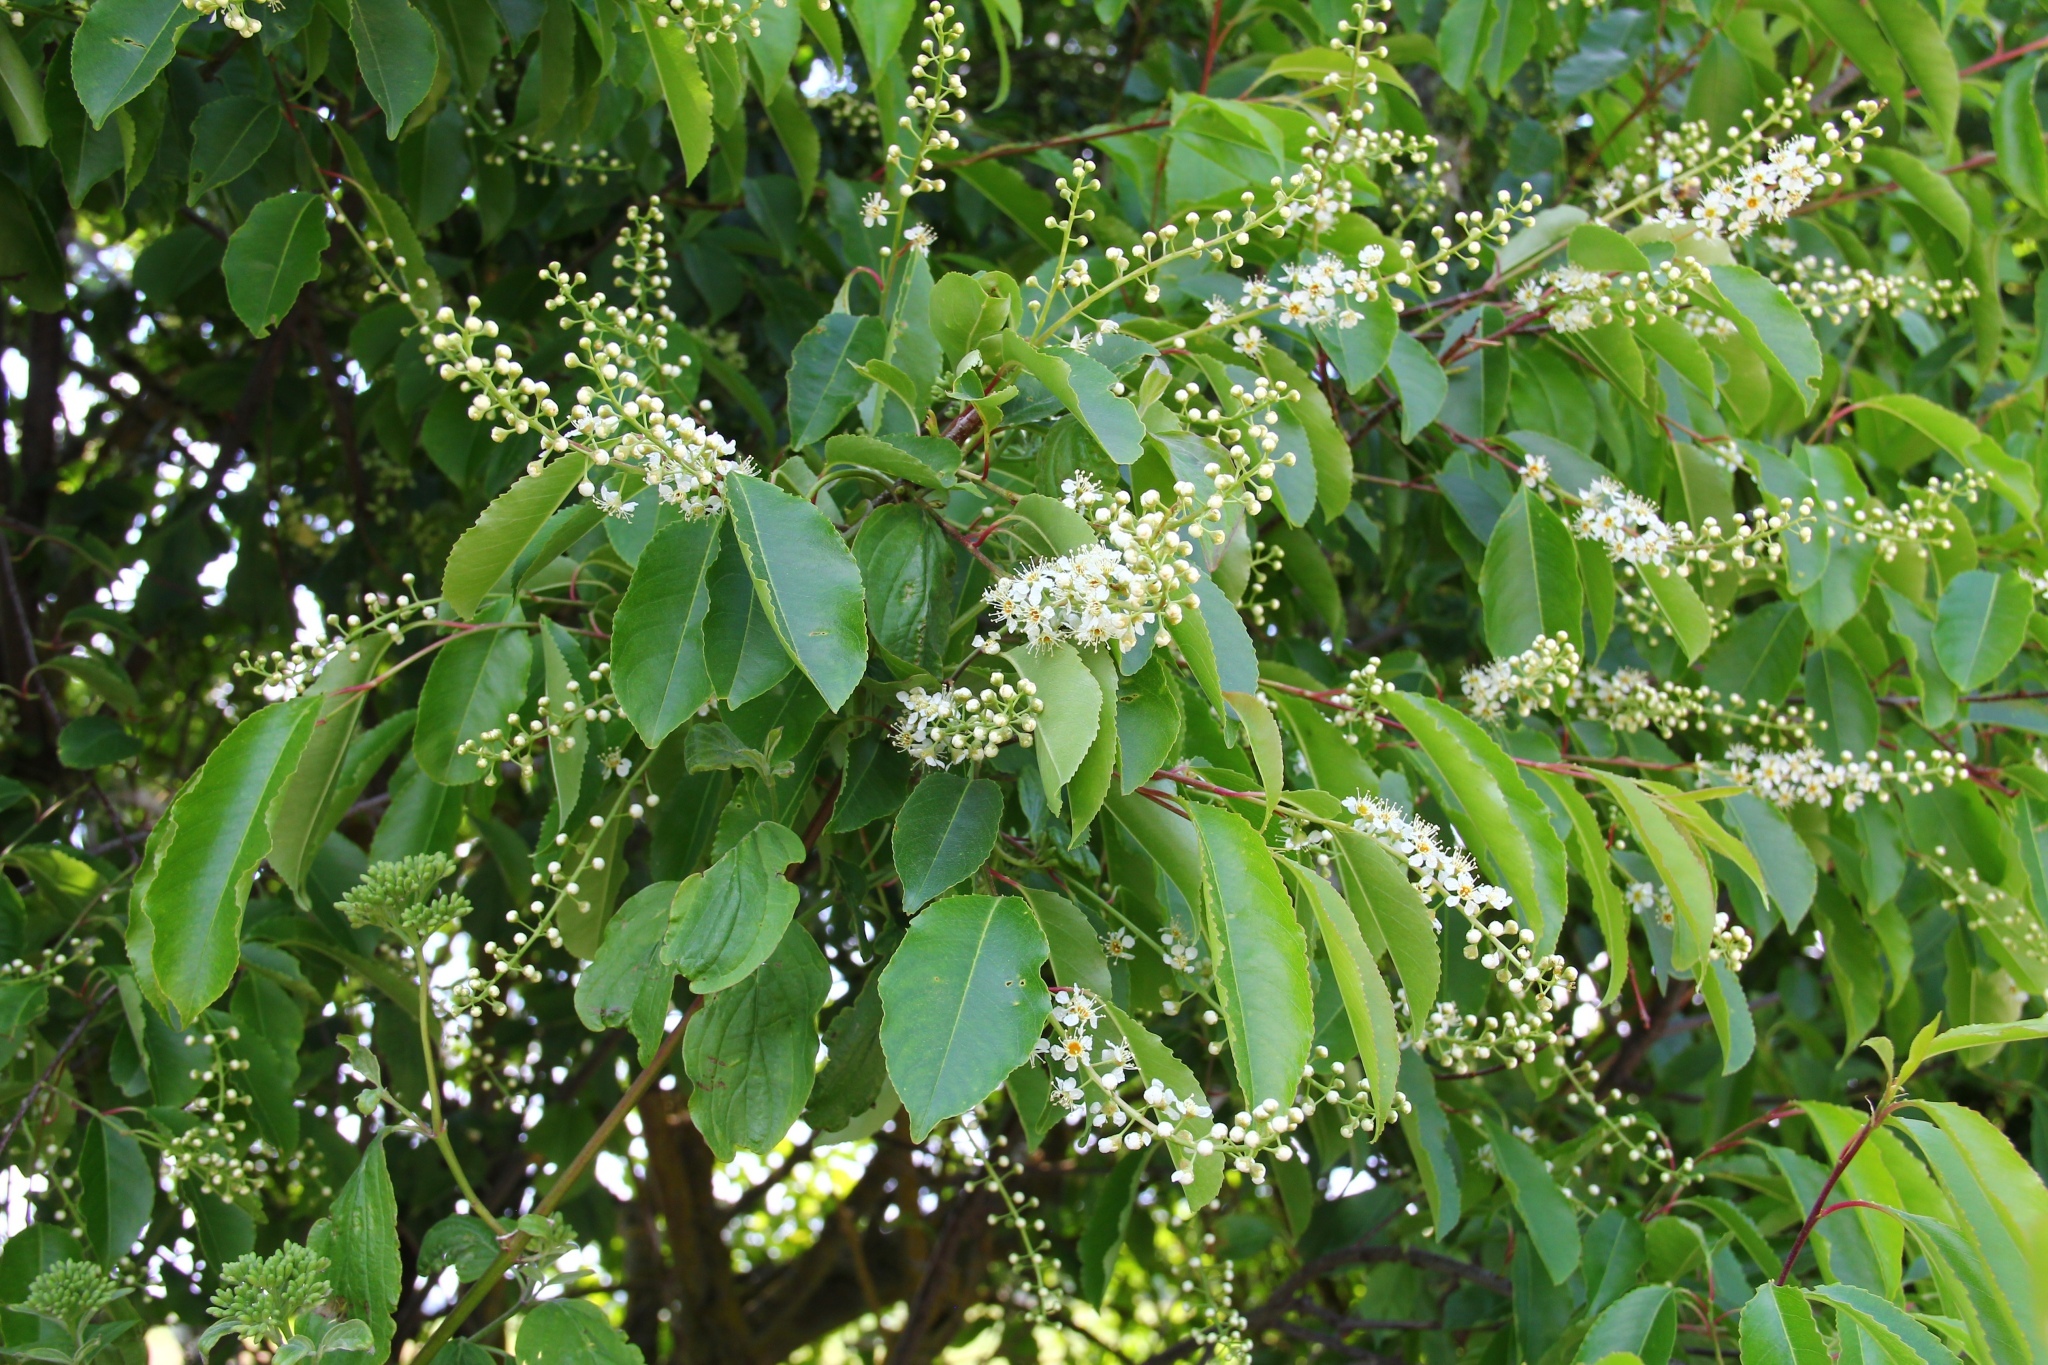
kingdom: Plantae
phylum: Tracheophyta
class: Magnoliopsida
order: Rosales
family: Rosaceae
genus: Prunus
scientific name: Prunus serotina
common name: Black cherry
